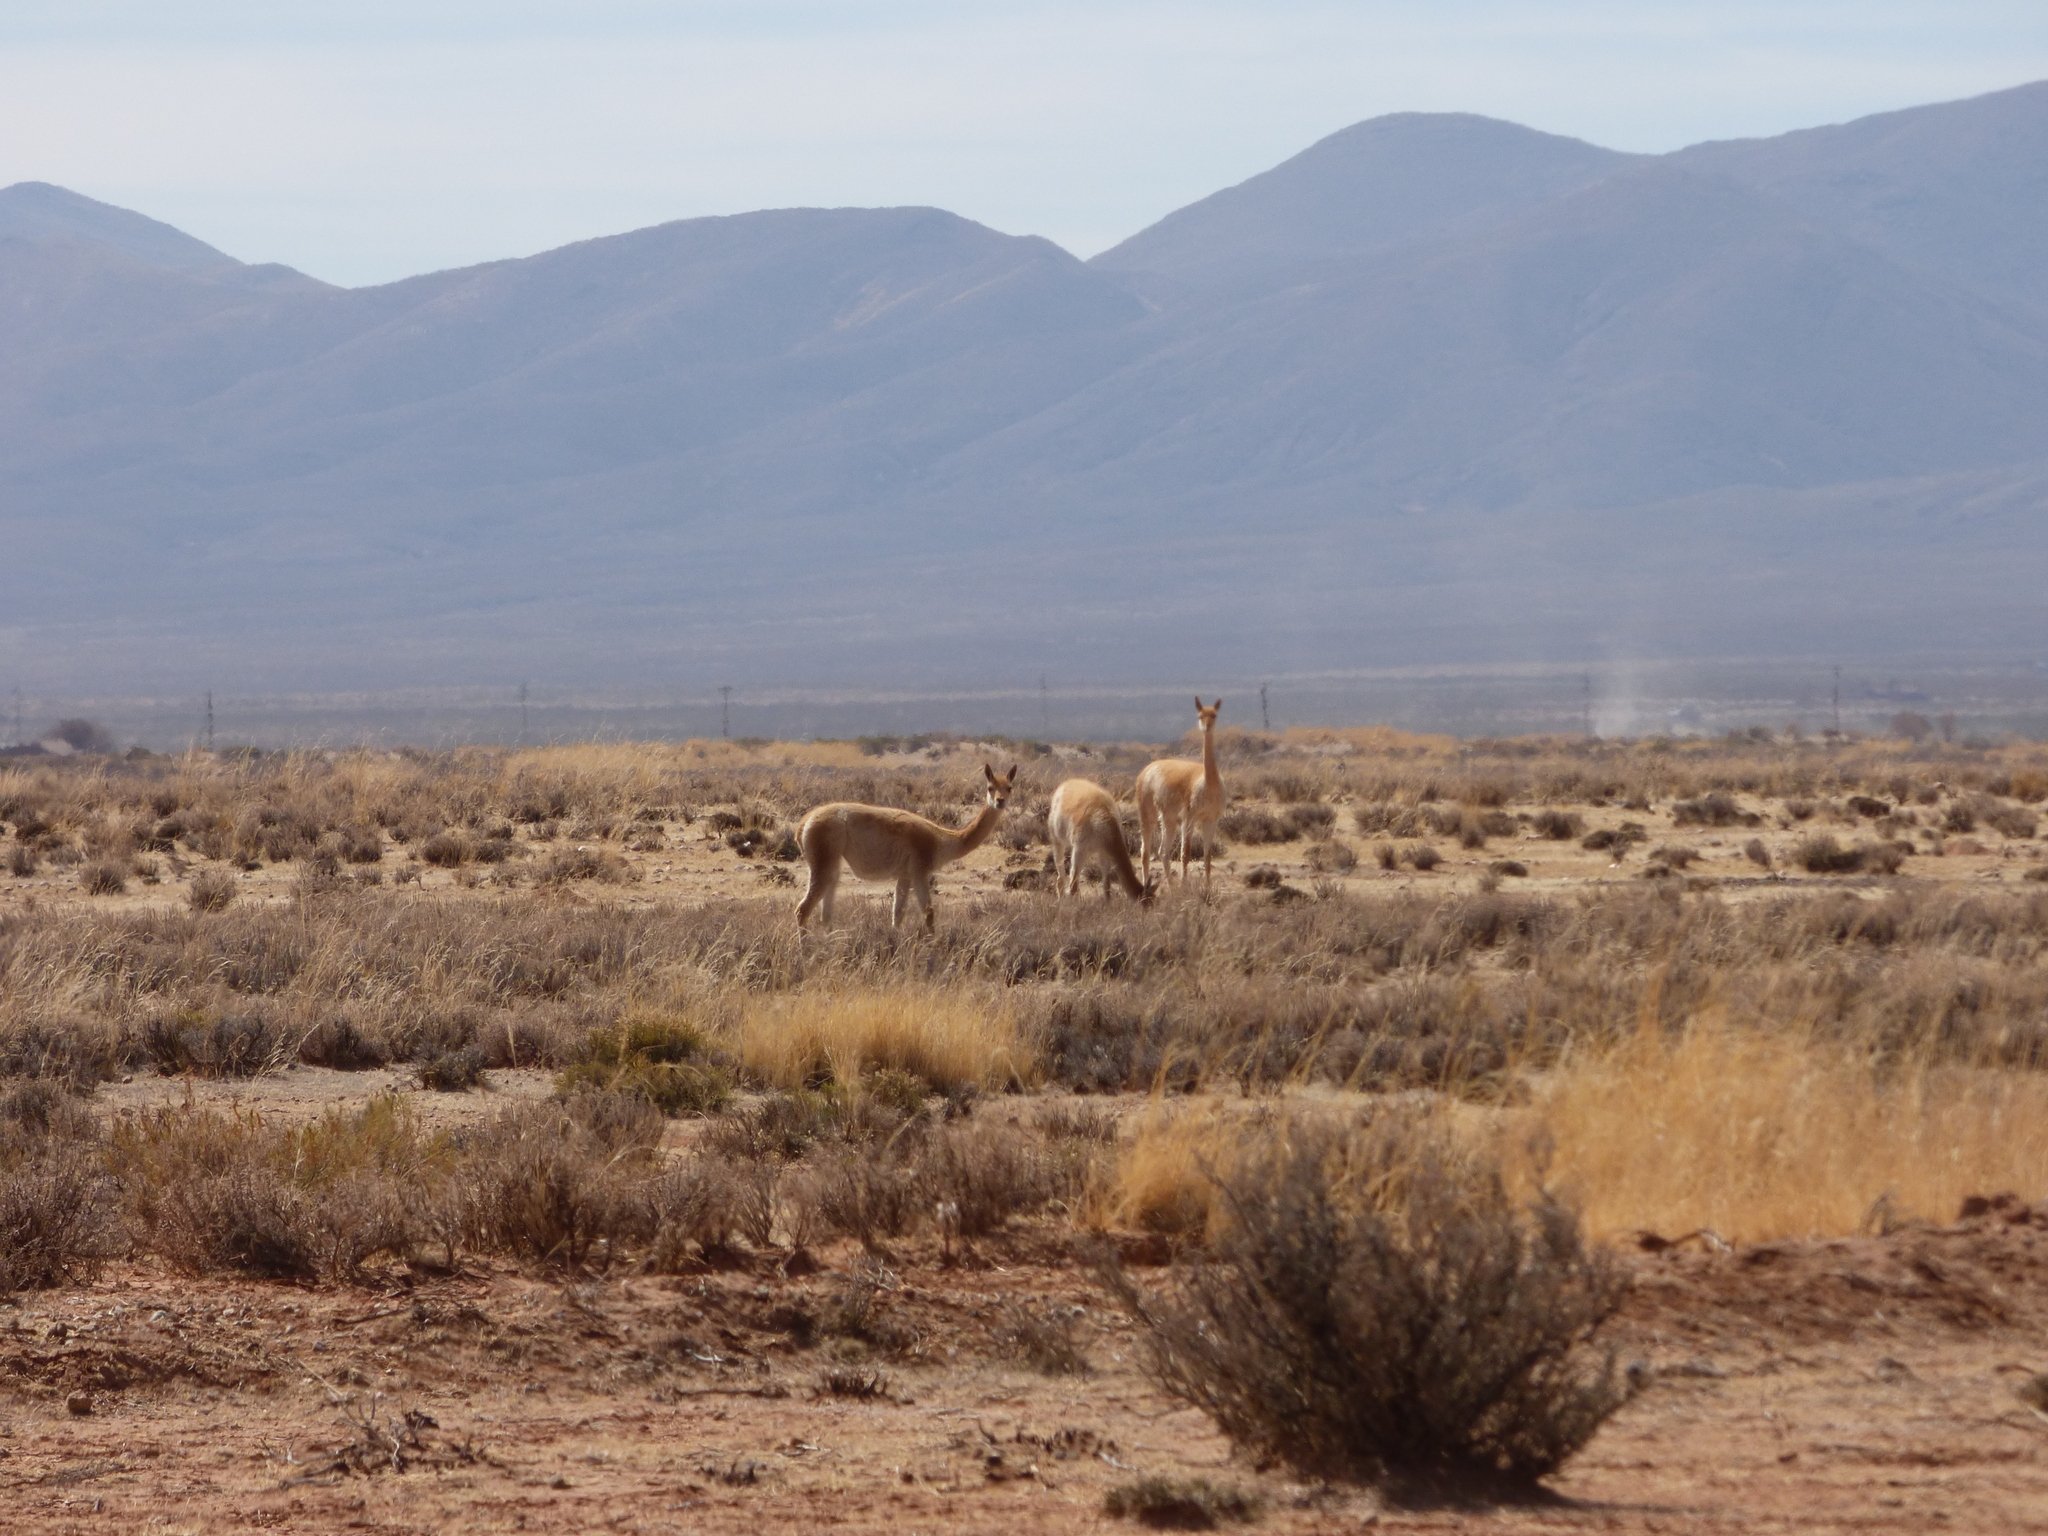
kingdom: Animalia
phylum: Chordata
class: Mammalia
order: Artiodactyla
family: Camelidae
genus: Vicugna
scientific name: Vicugna vicugna
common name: Vicugna
